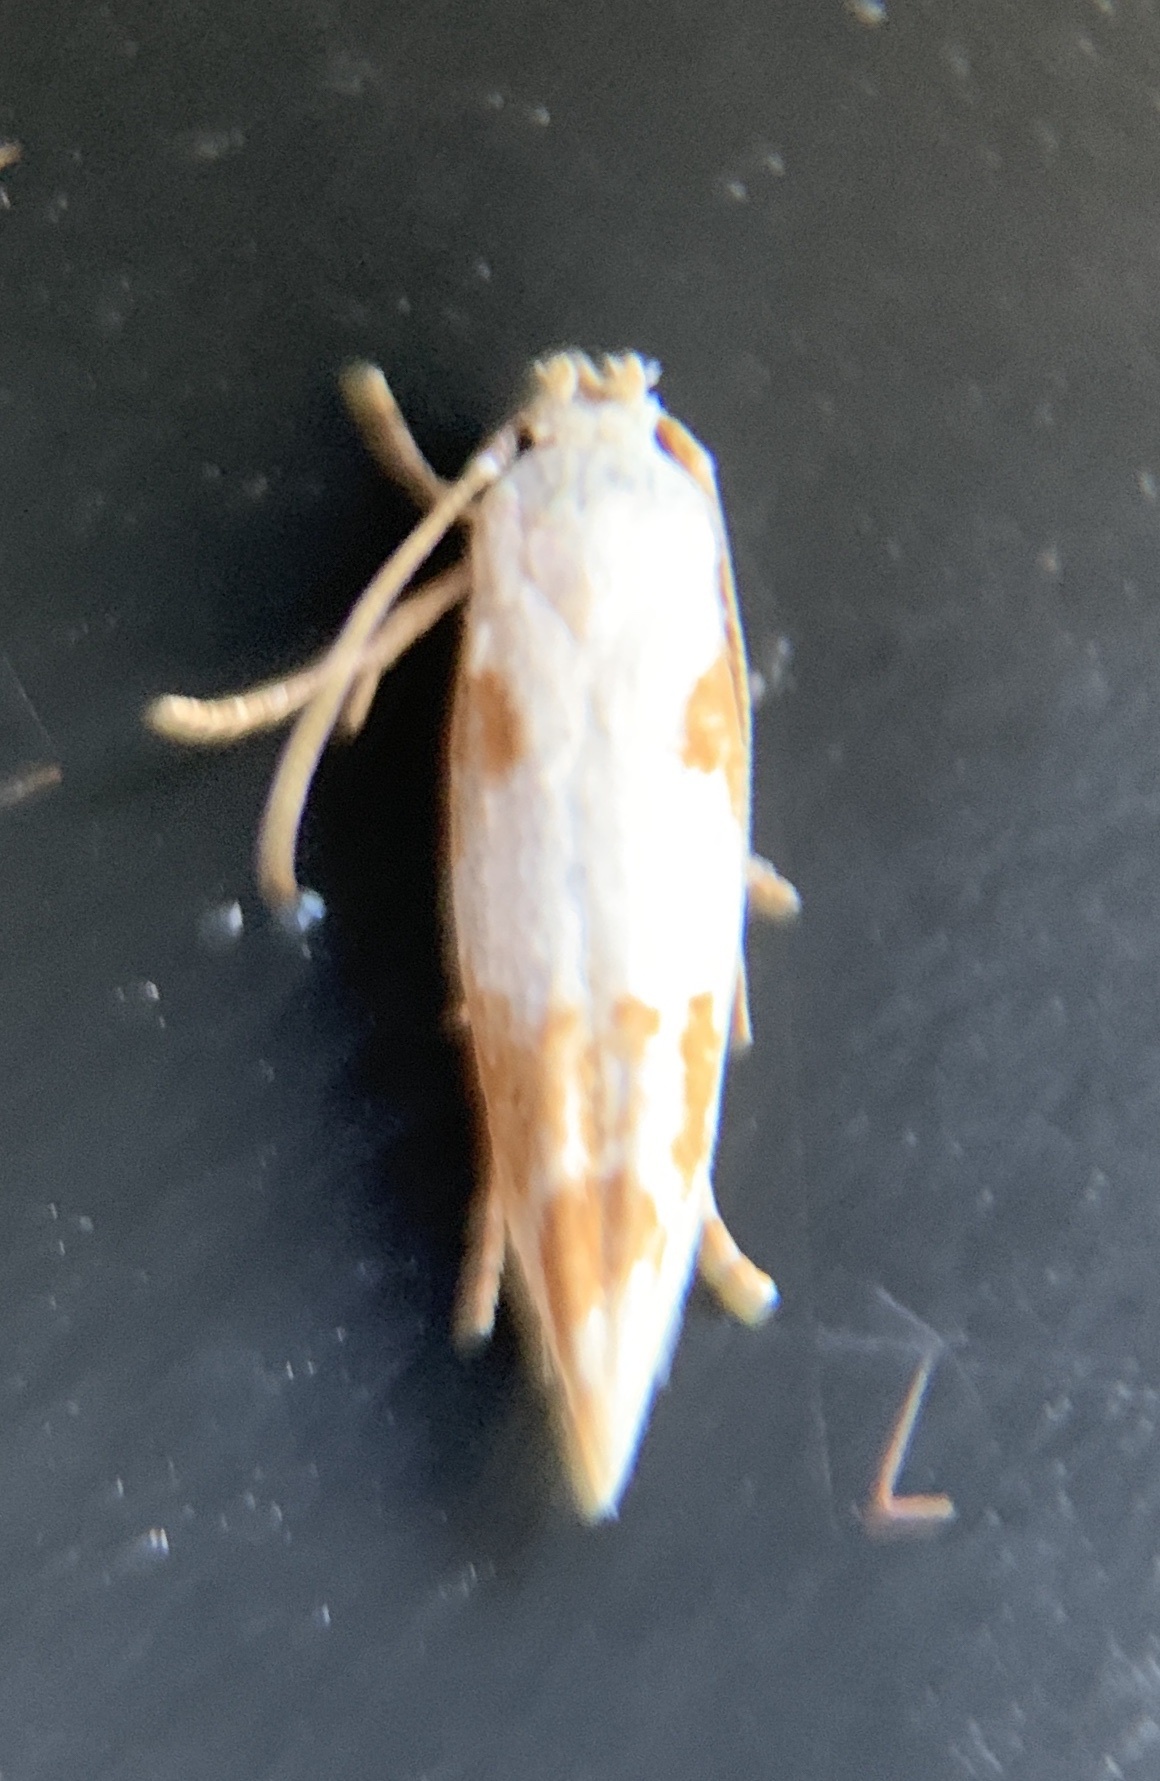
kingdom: Animalia
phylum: Arthropoda
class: Insecta
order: Lepidoptera
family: Momphidae
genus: Mompha
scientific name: Mompha circumscriptella
